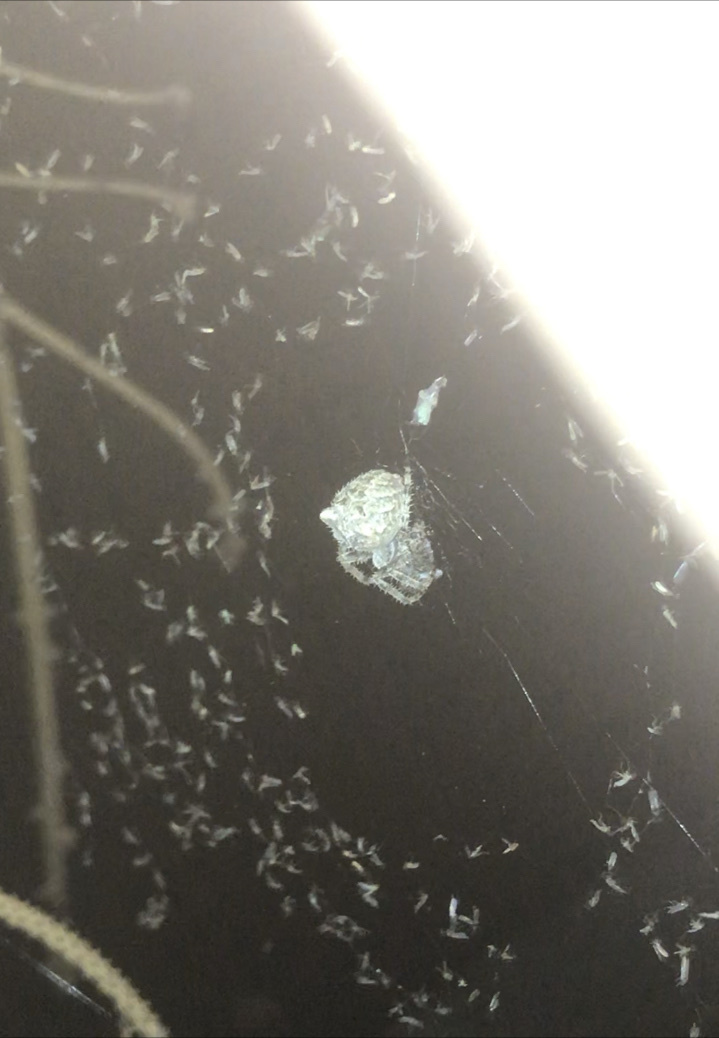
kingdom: Animalia
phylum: Arthropoda
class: Arachnida
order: Araneae
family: Araneidae
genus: Araneus
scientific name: Araneus gemmoides
